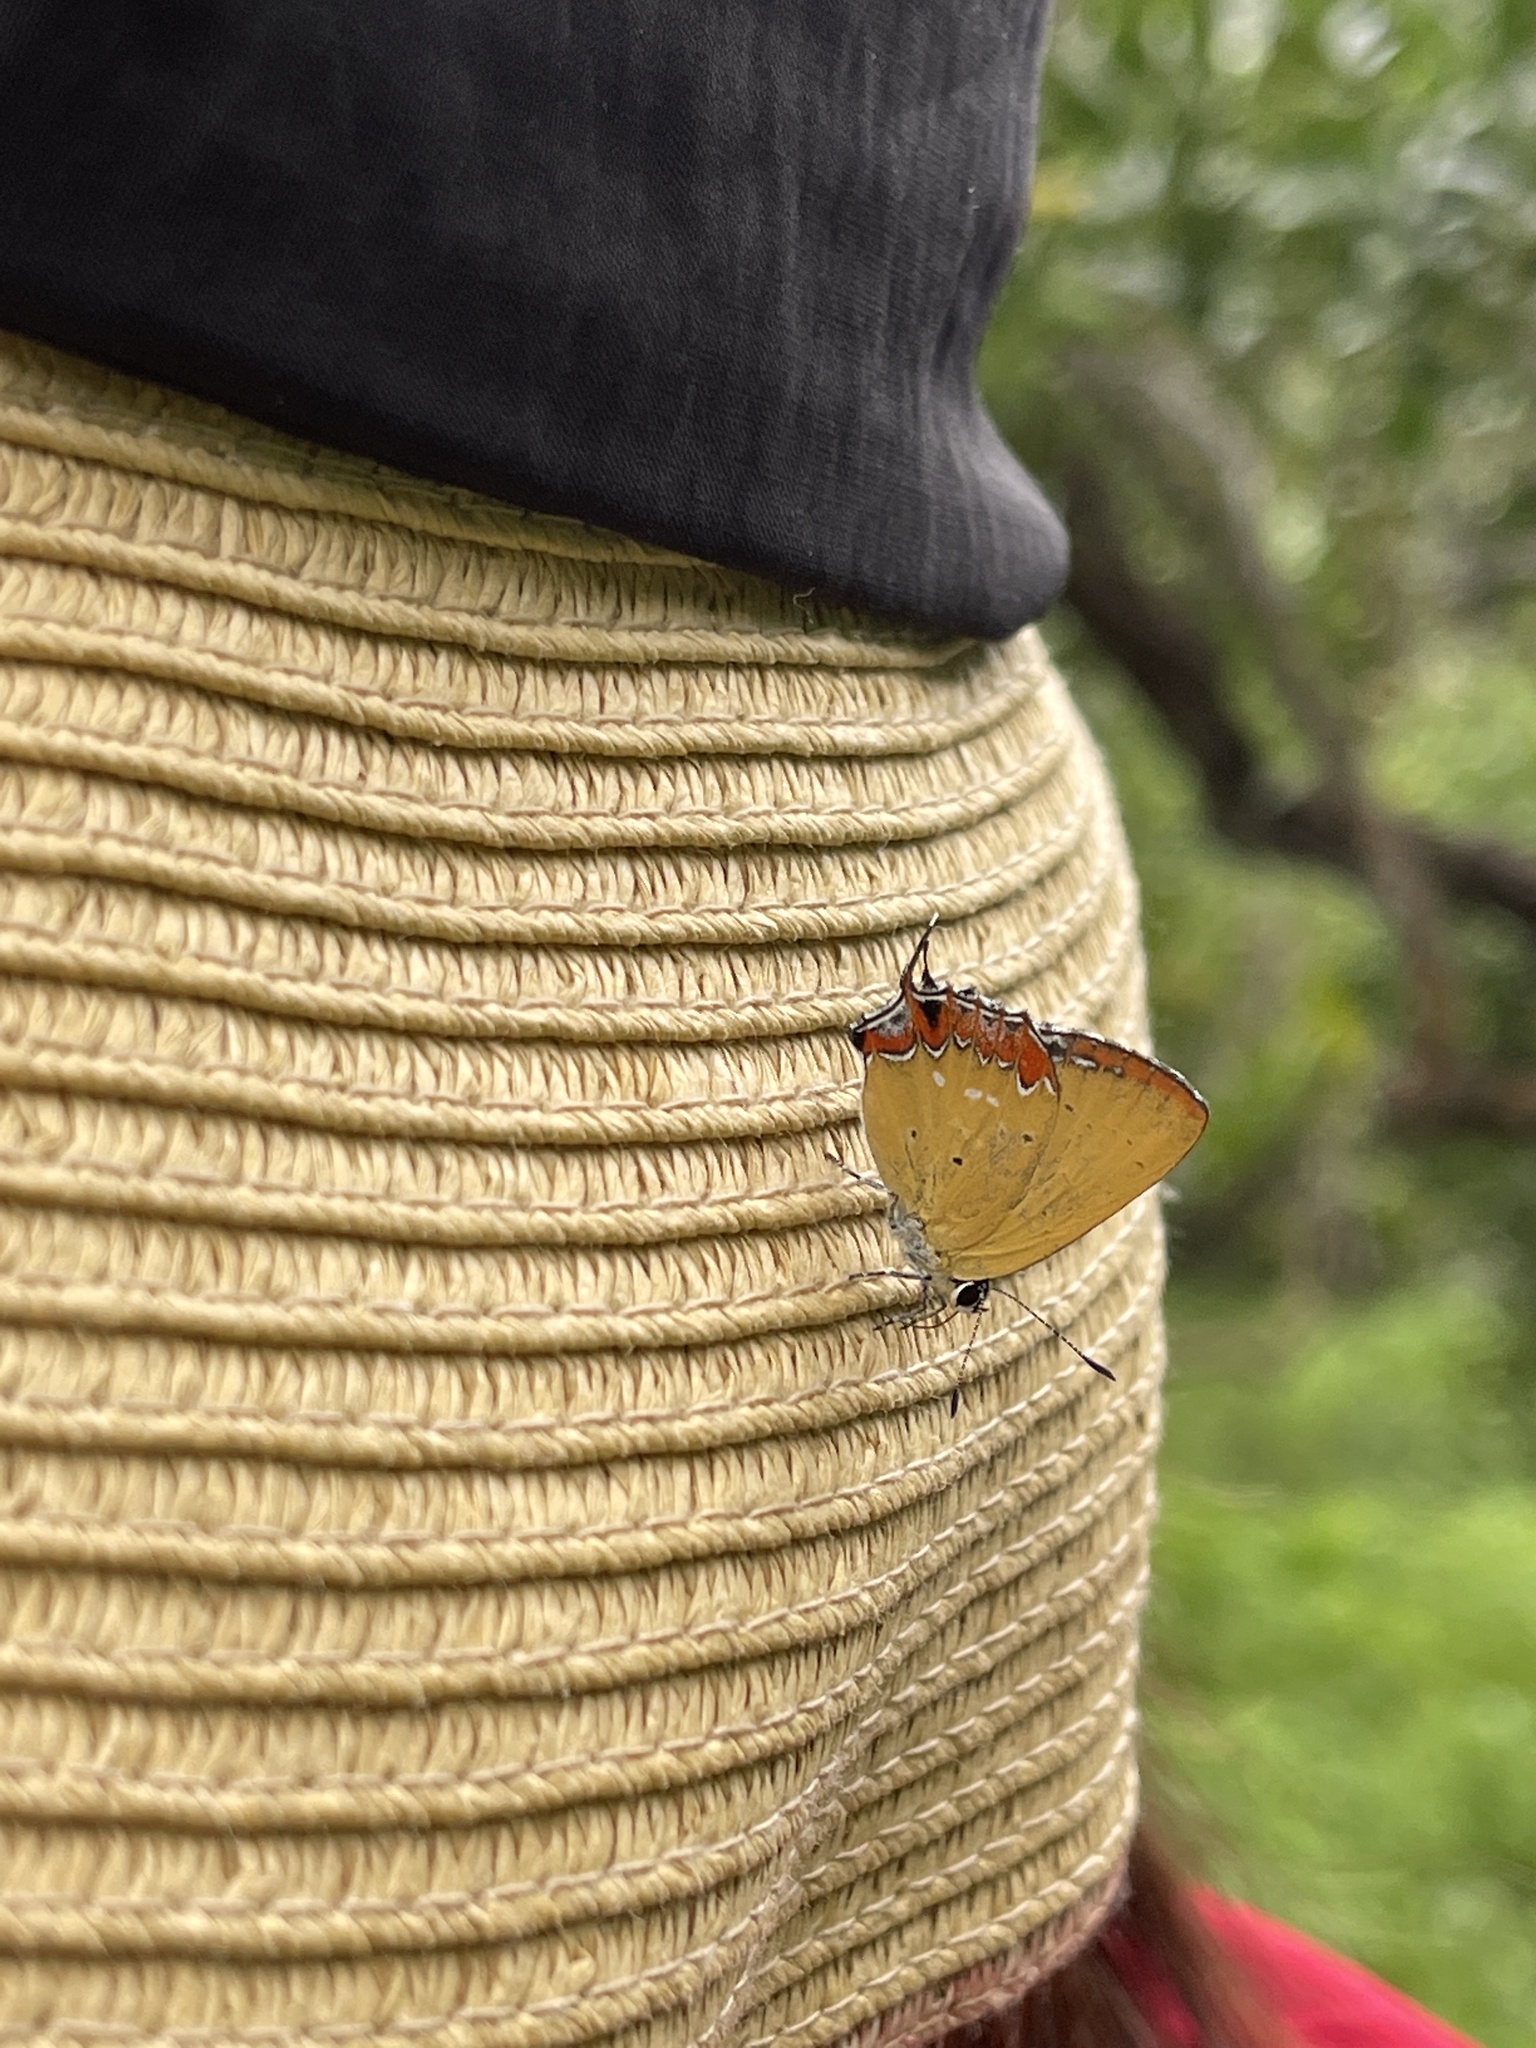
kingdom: Animalia
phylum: Arthropoda
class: Insecta
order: Lepidoptera
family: Lycaenidae
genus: Heliophorus
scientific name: Heliophorus ila
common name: Restricted purple sapphire
